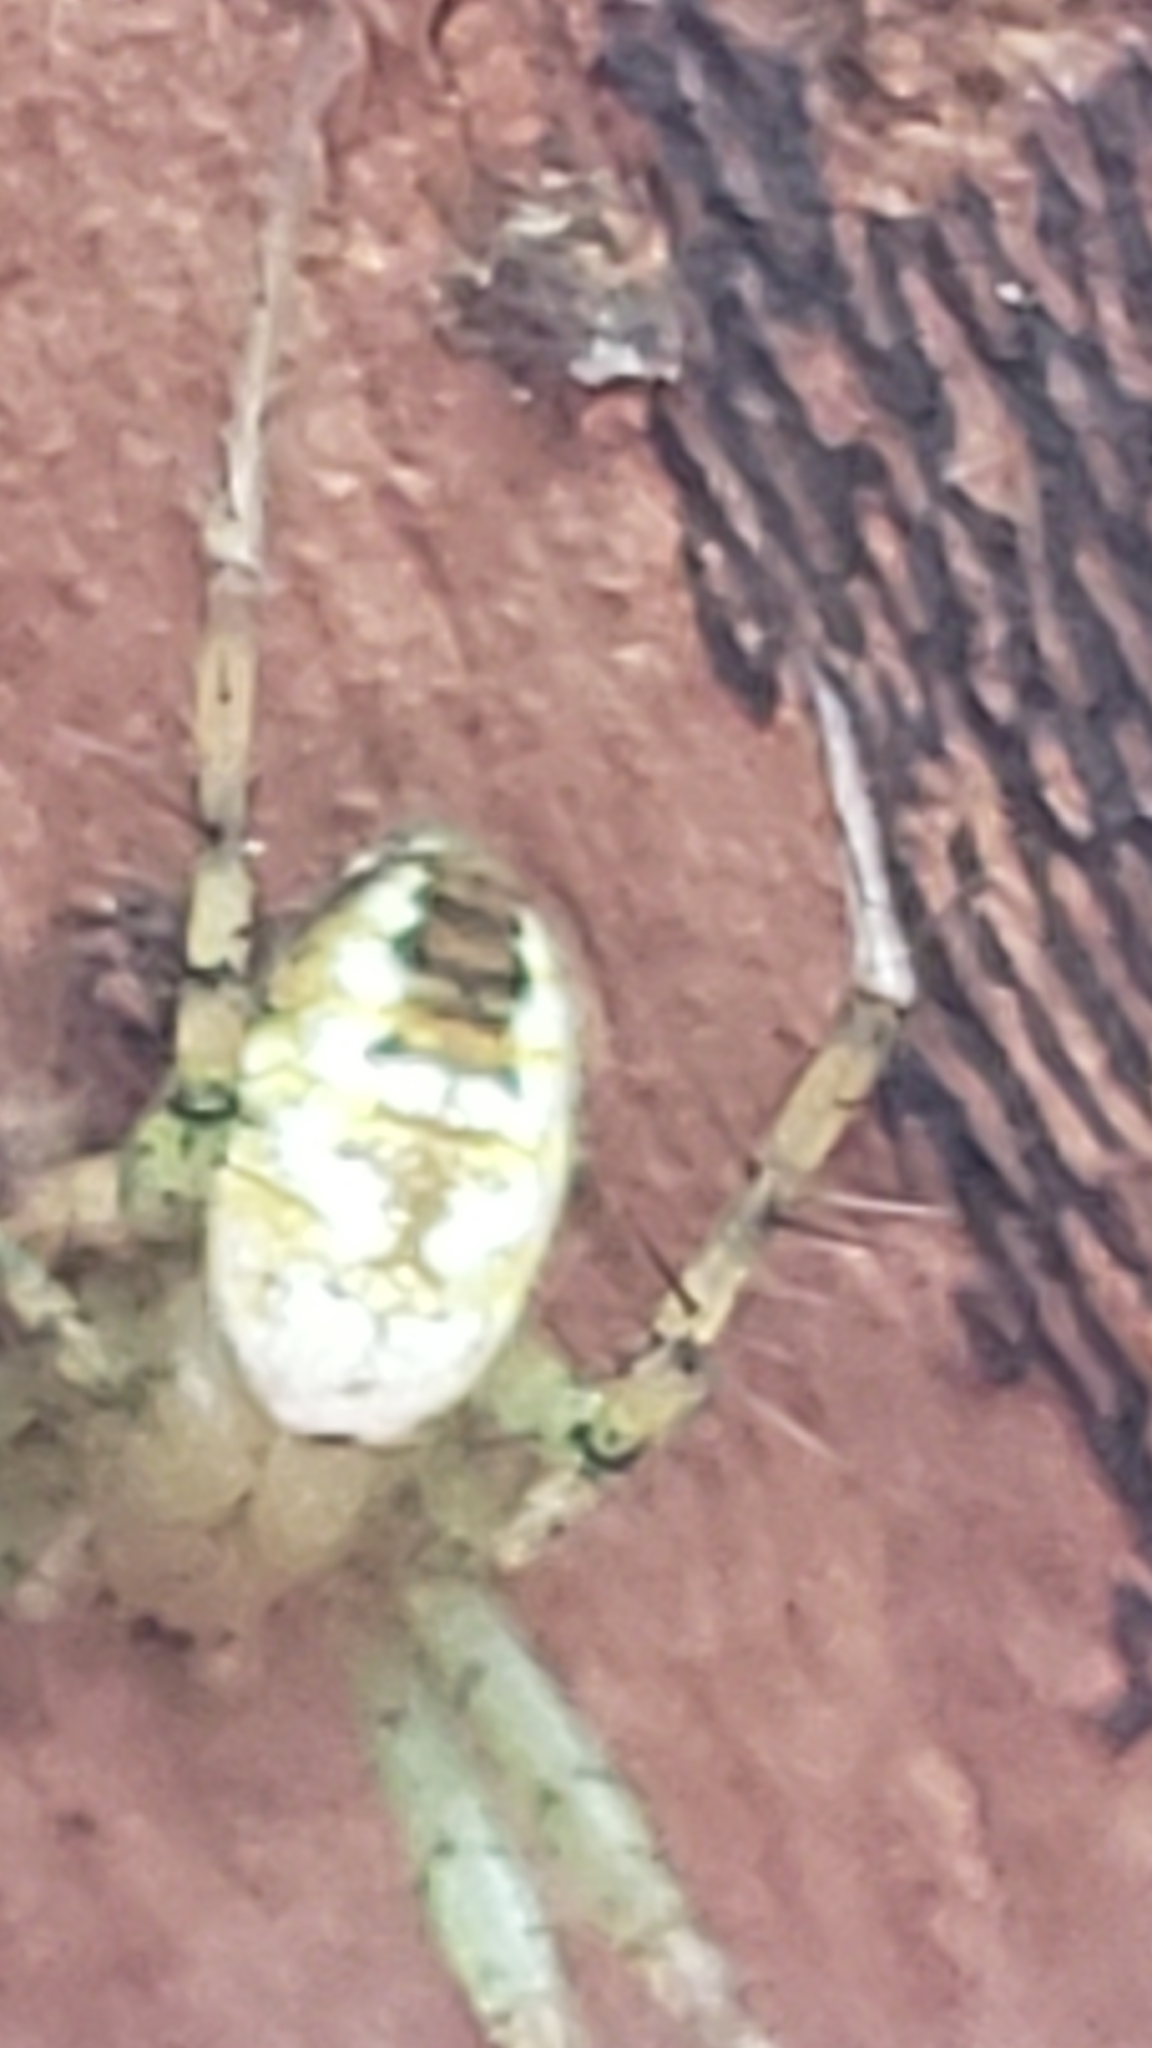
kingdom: Animalia
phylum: Arthropoda
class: Arachnida
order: Araneae
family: Araneidae
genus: Mangora
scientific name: Mangora spiculata
